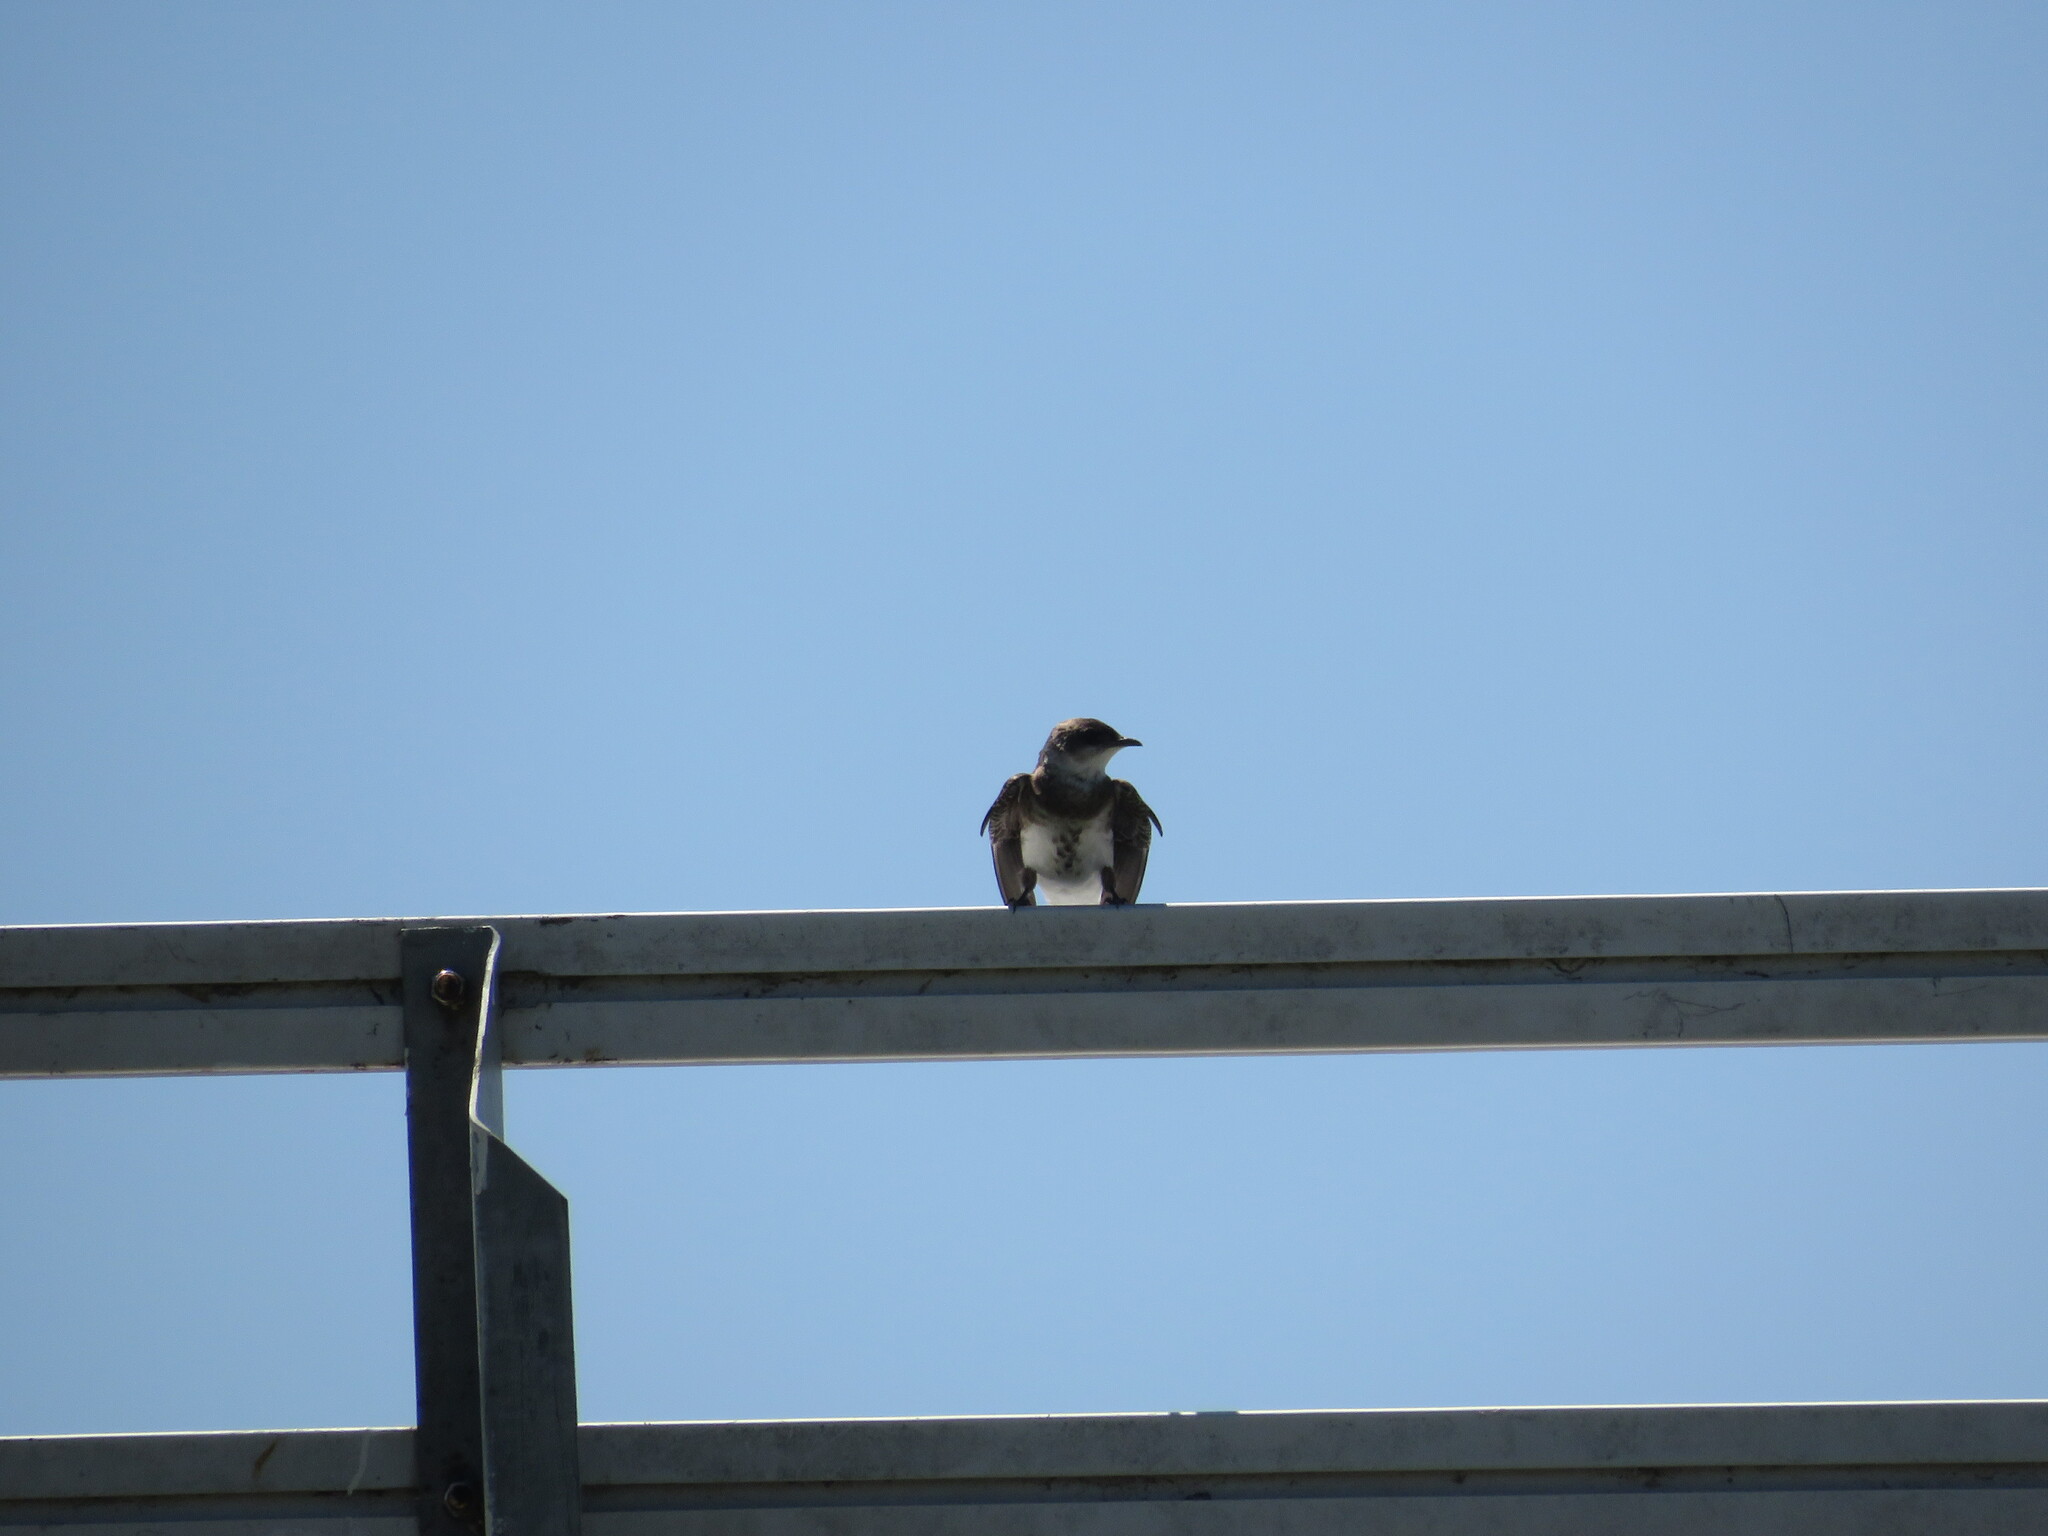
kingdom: Animalia
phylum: Chordata
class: Aves
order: Passeriformes
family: Hirundinidae
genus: Progne
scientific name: Progne tapera
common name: Brown-chested martin
